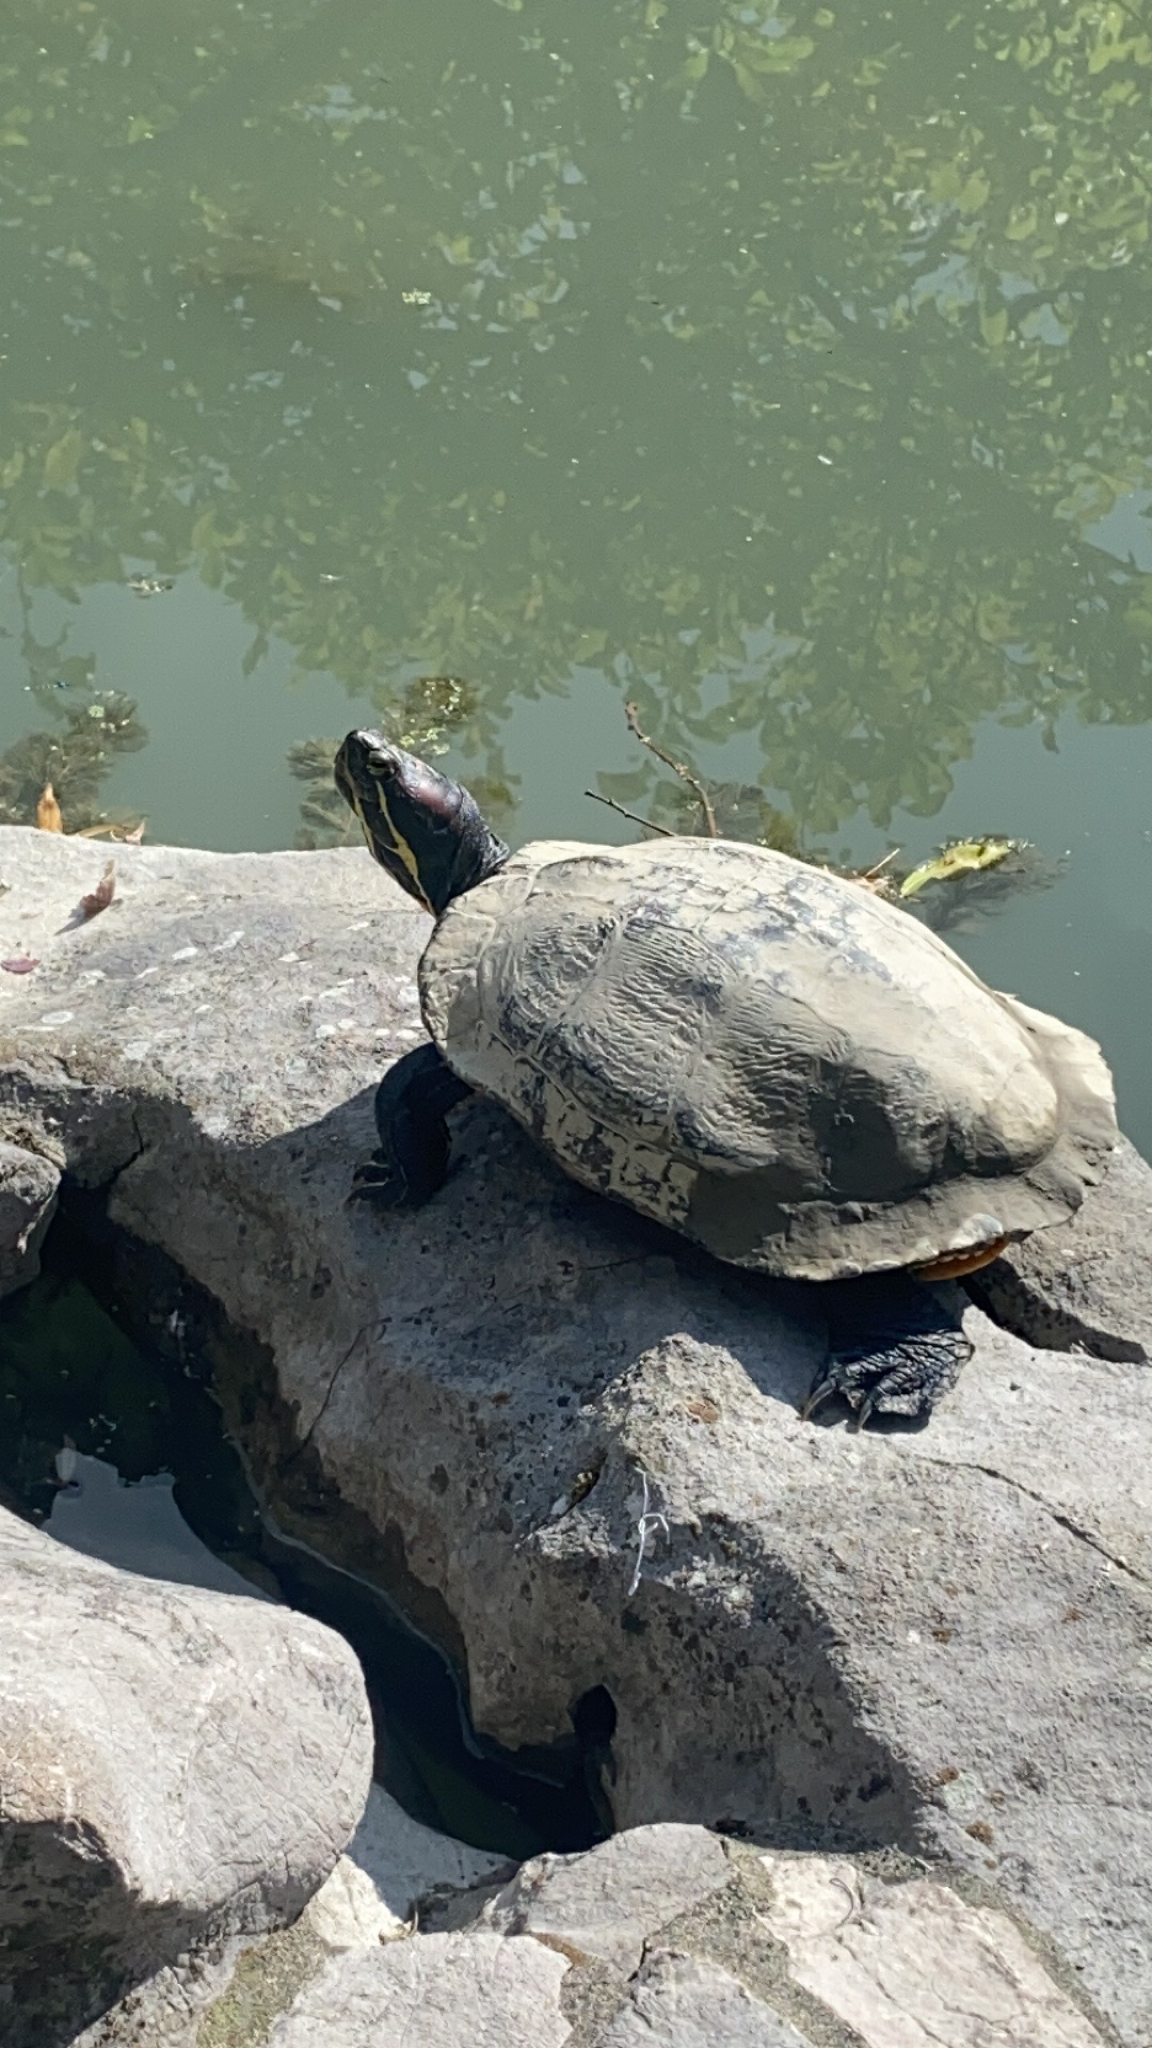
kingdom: Animalia
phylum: Chordata
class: Testudines
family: Emydidae
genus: Trachemys
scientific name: Trachemys scripta
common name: Slider
